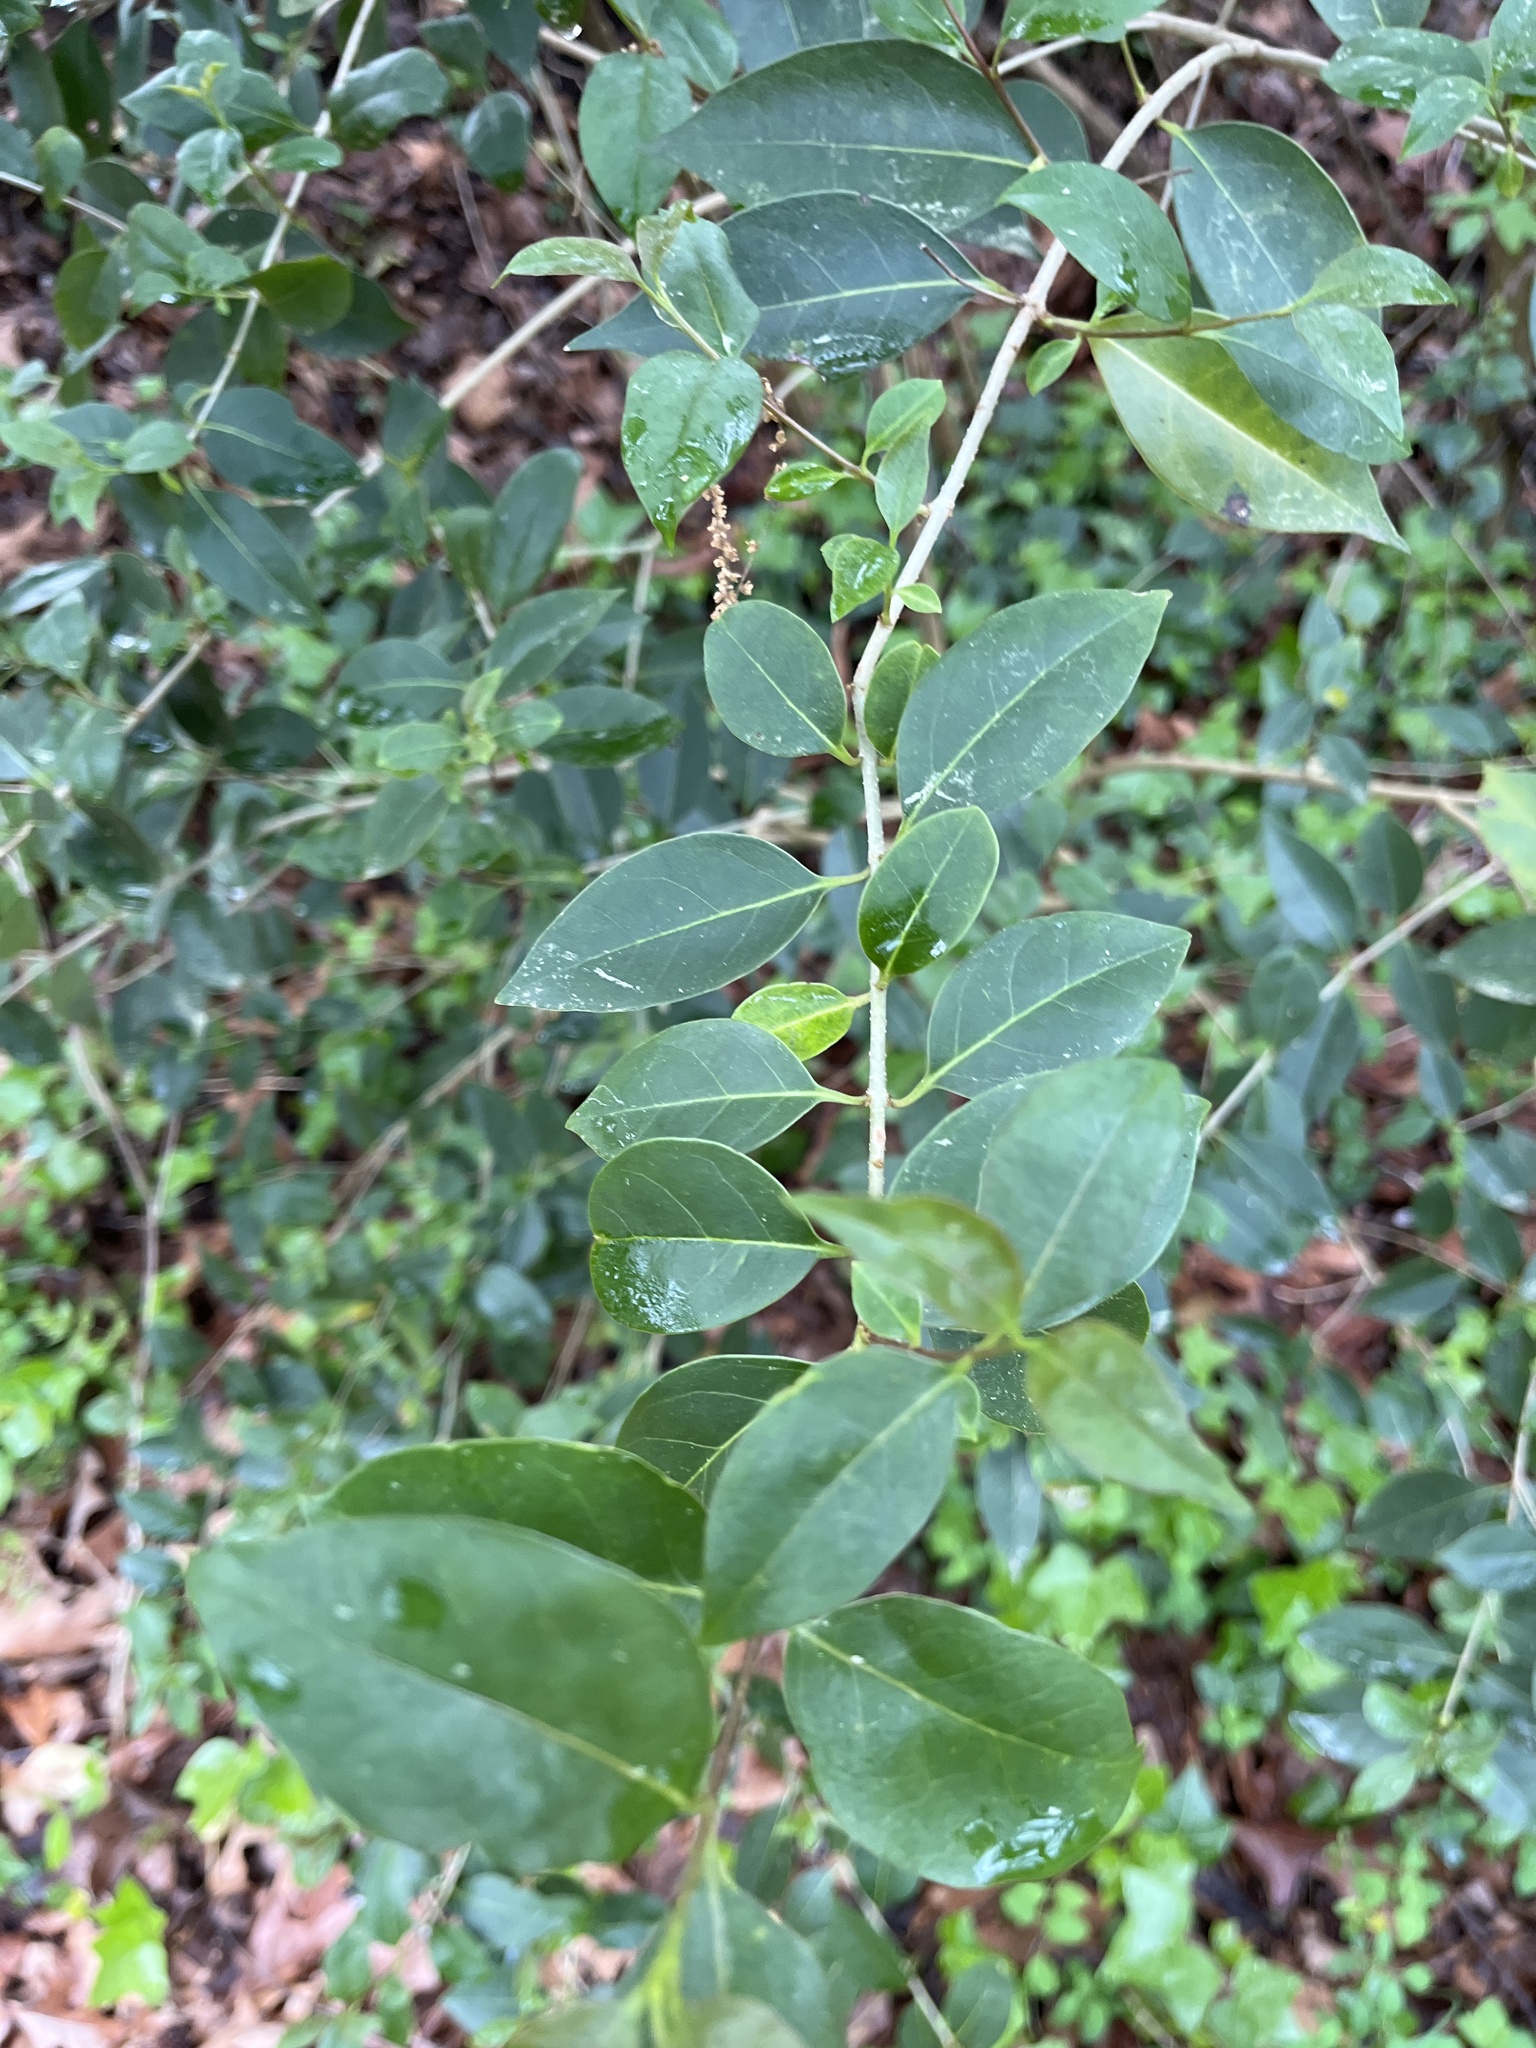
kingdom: Plantae
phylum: Tracheophyta
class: Magnoliopsida
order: Lamiales
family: Oleaceae
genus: Ligustrum
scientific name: Ligustrum lucidum
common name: Glossy privet
